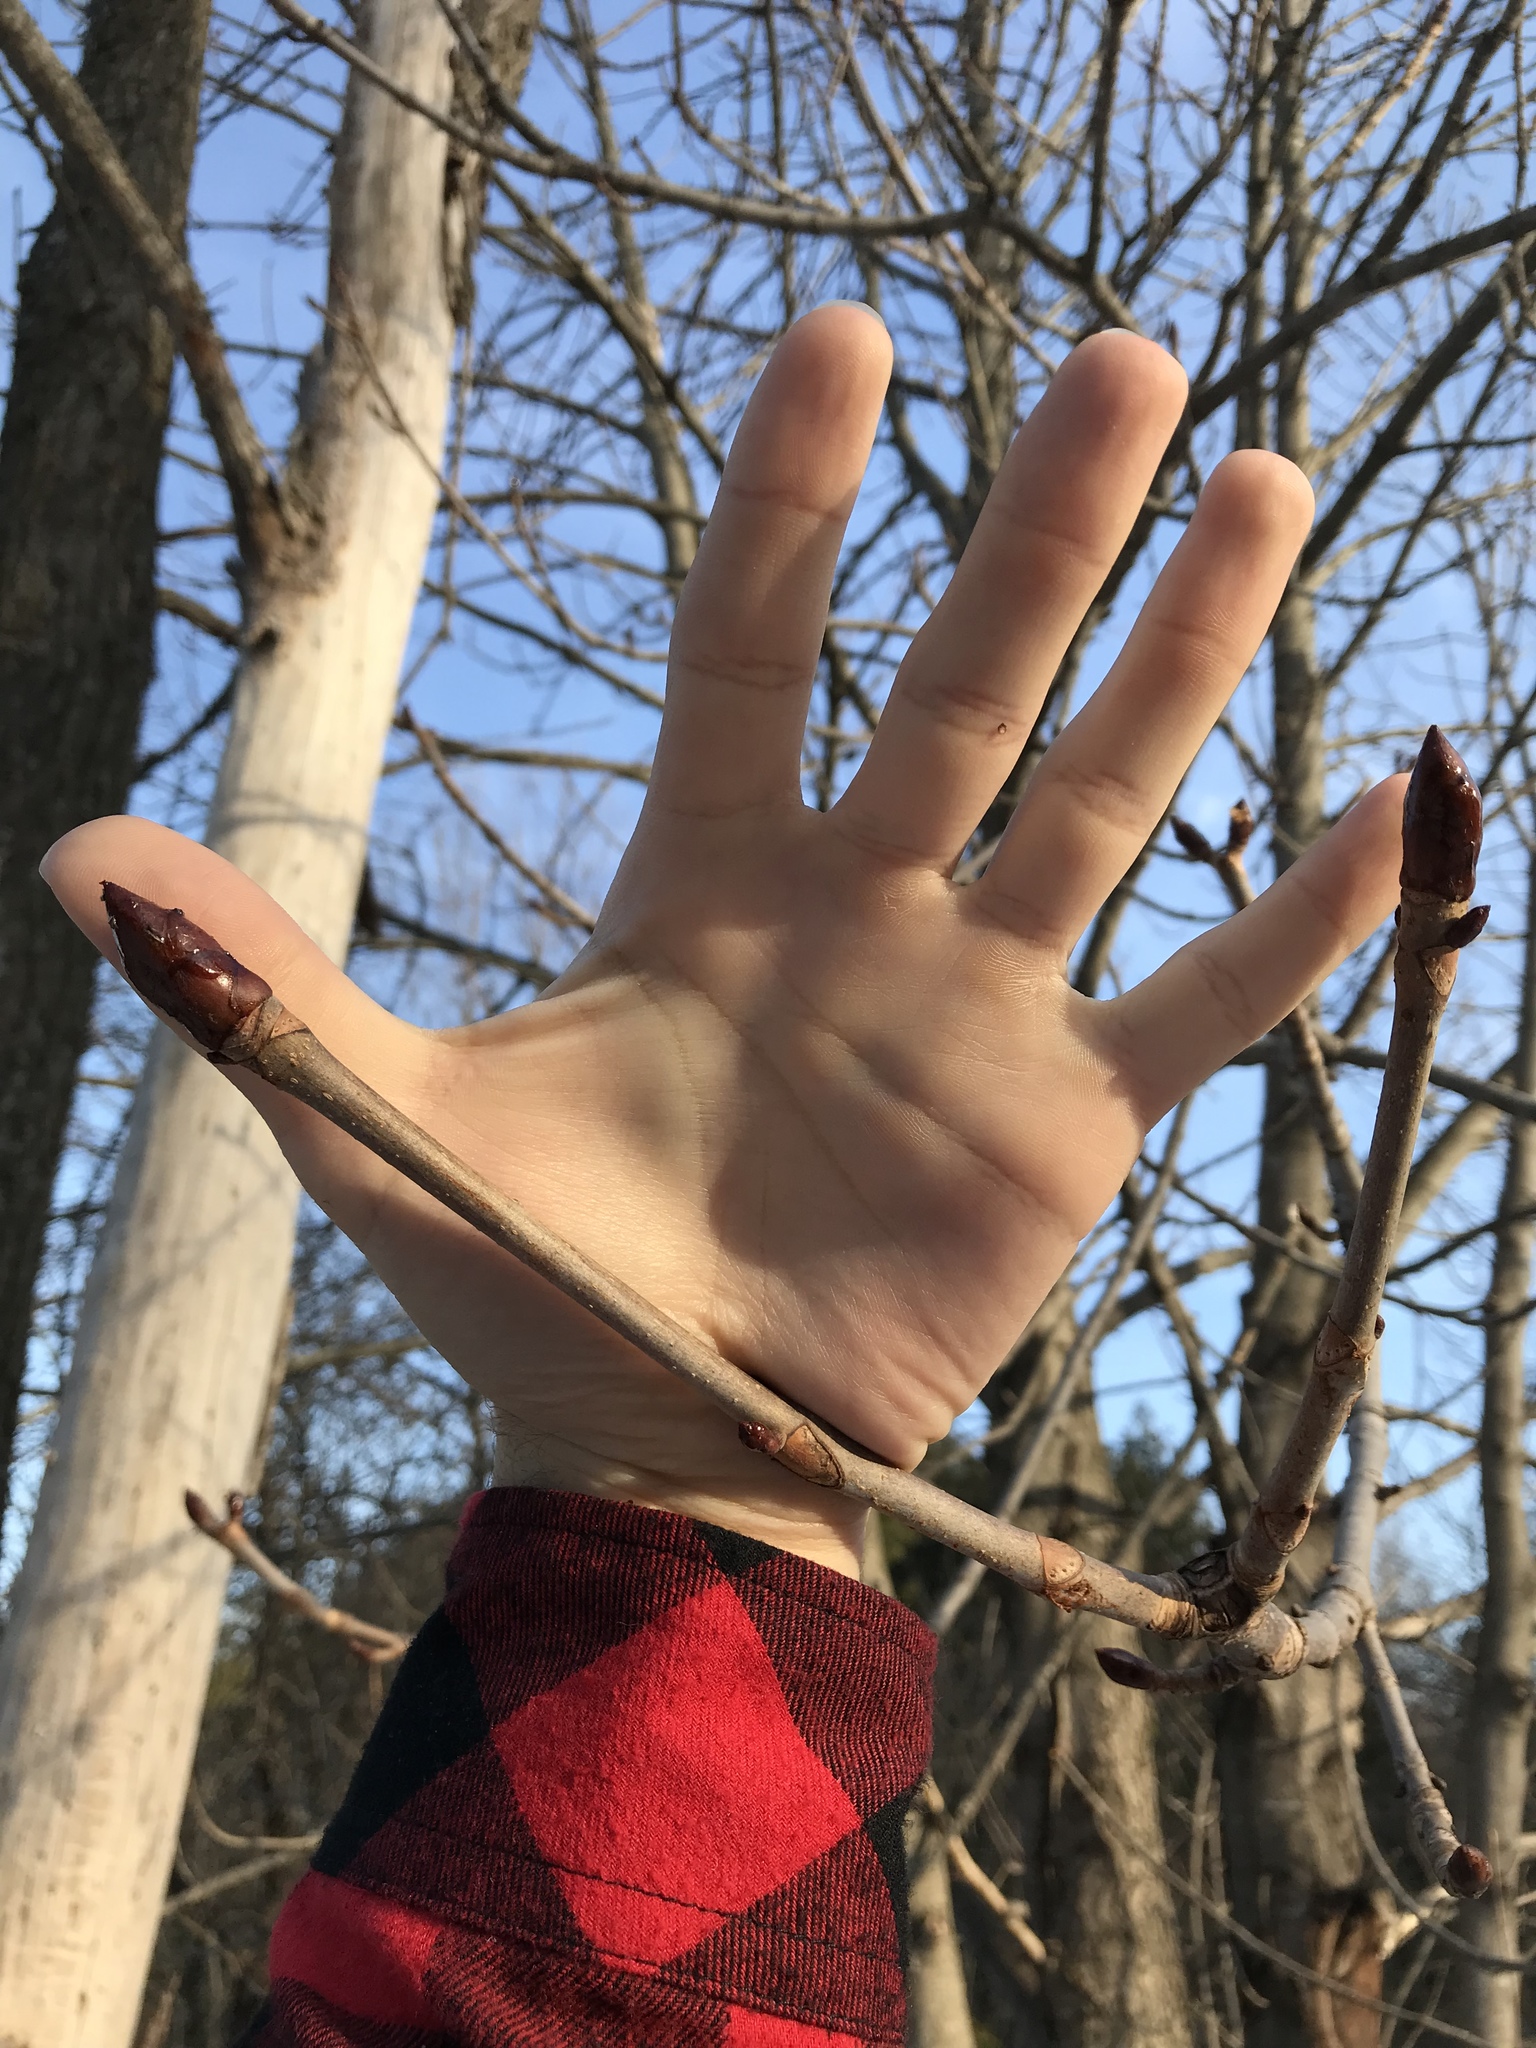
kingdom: Plantae
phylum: Tracheophyta
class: Magnoliopsida
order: Sapindales
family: Sapindaceae
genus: Aesculus
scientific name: Aesculus hippocastanum
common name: Horse-chestnut
